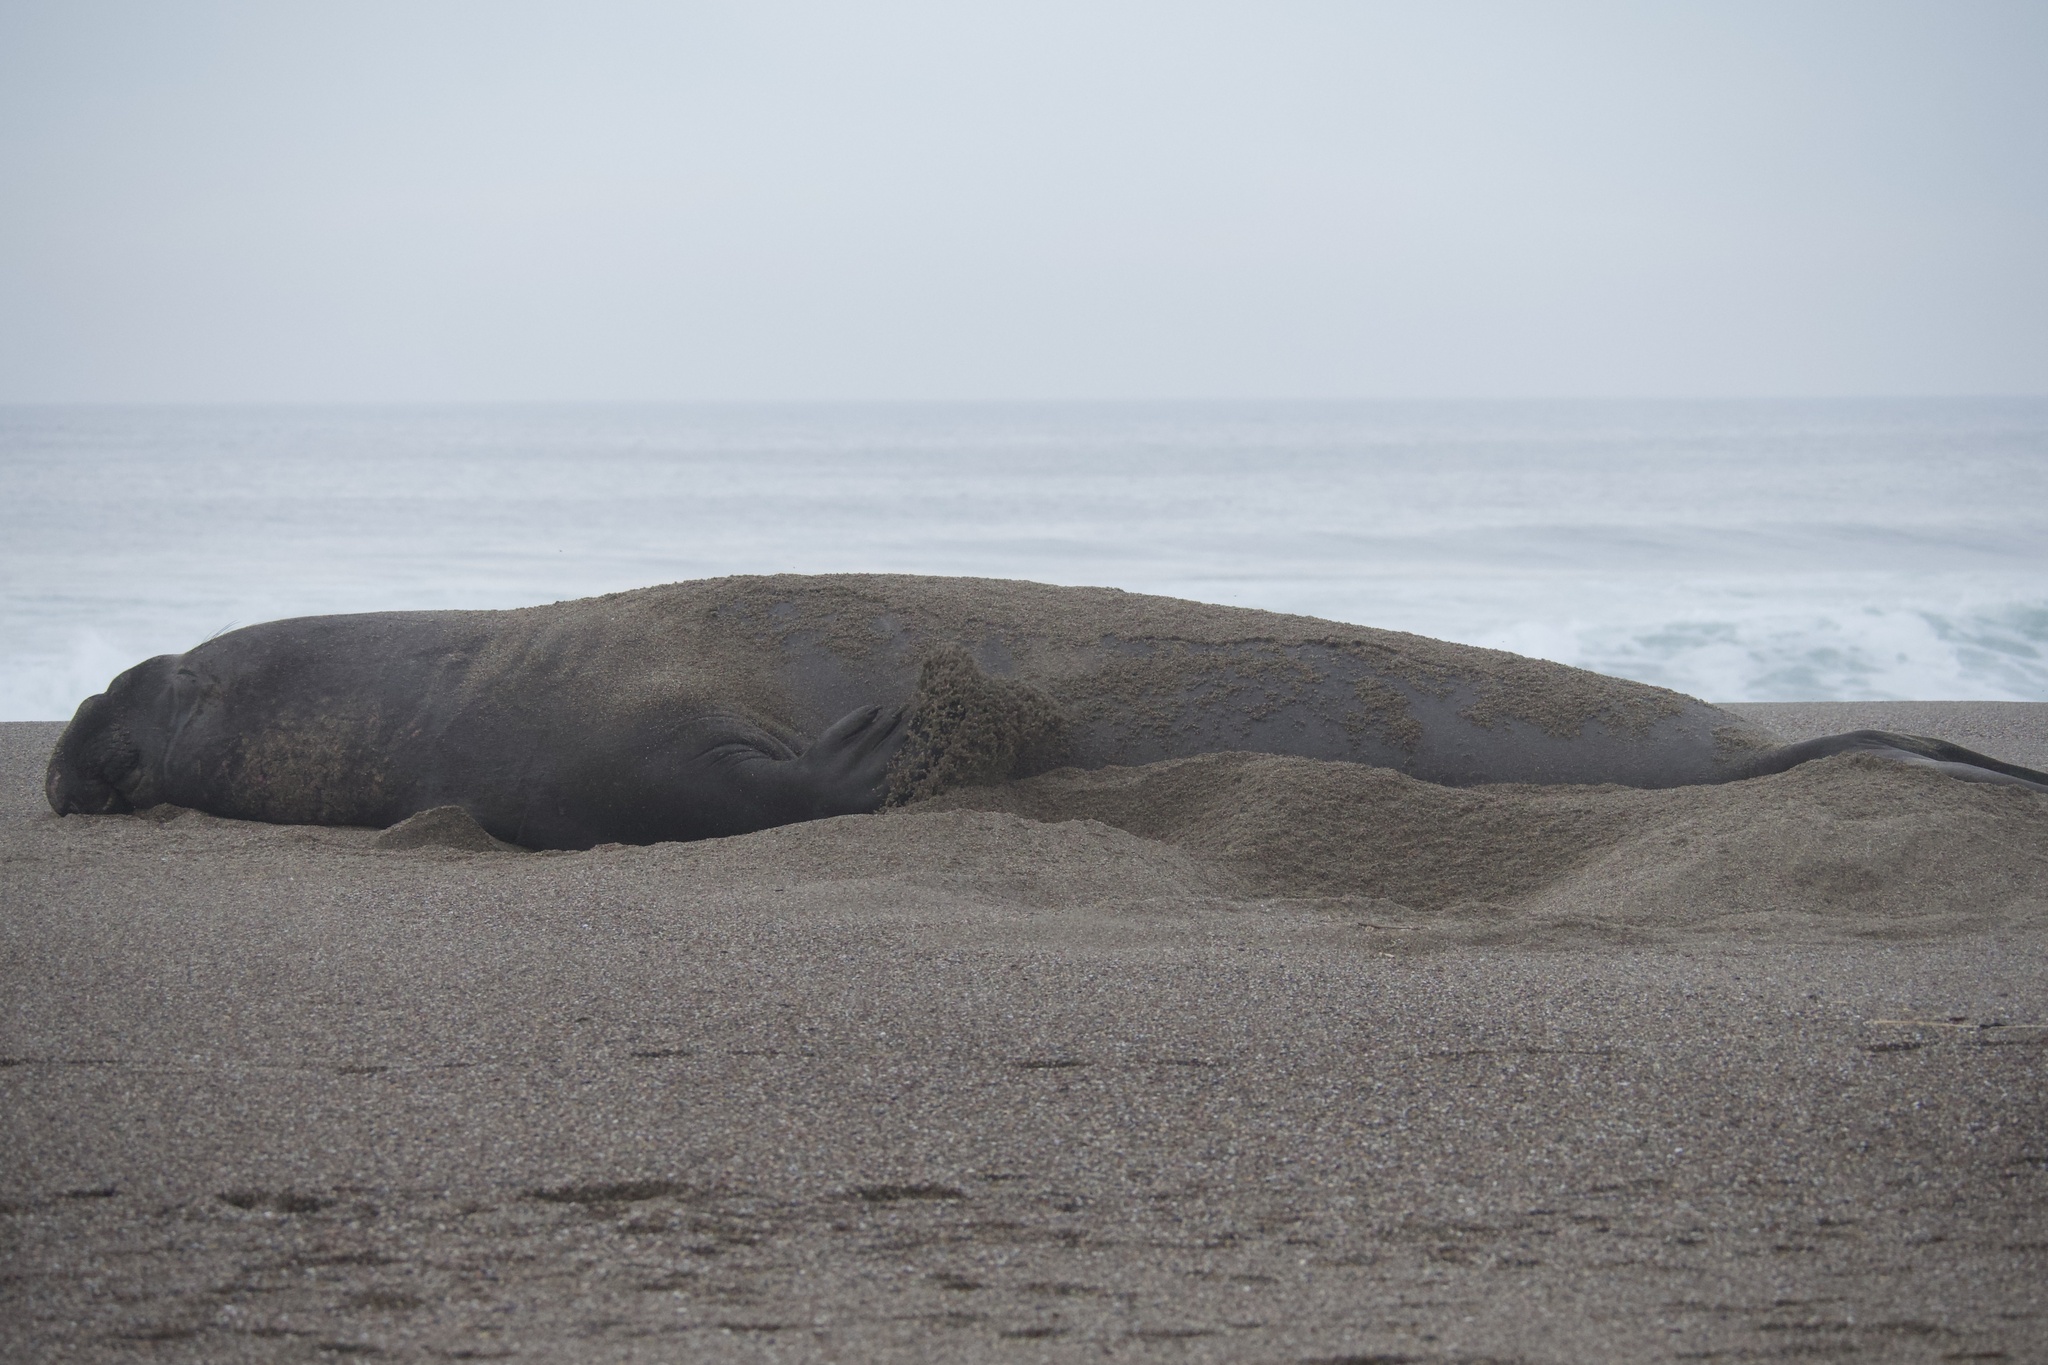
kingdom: Animalia
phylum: Chordata
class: Mammalia
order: Carnivora
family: Phocidae
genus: Mirounga
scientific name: Mirounga angustirostris
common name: Northern elephant seal
